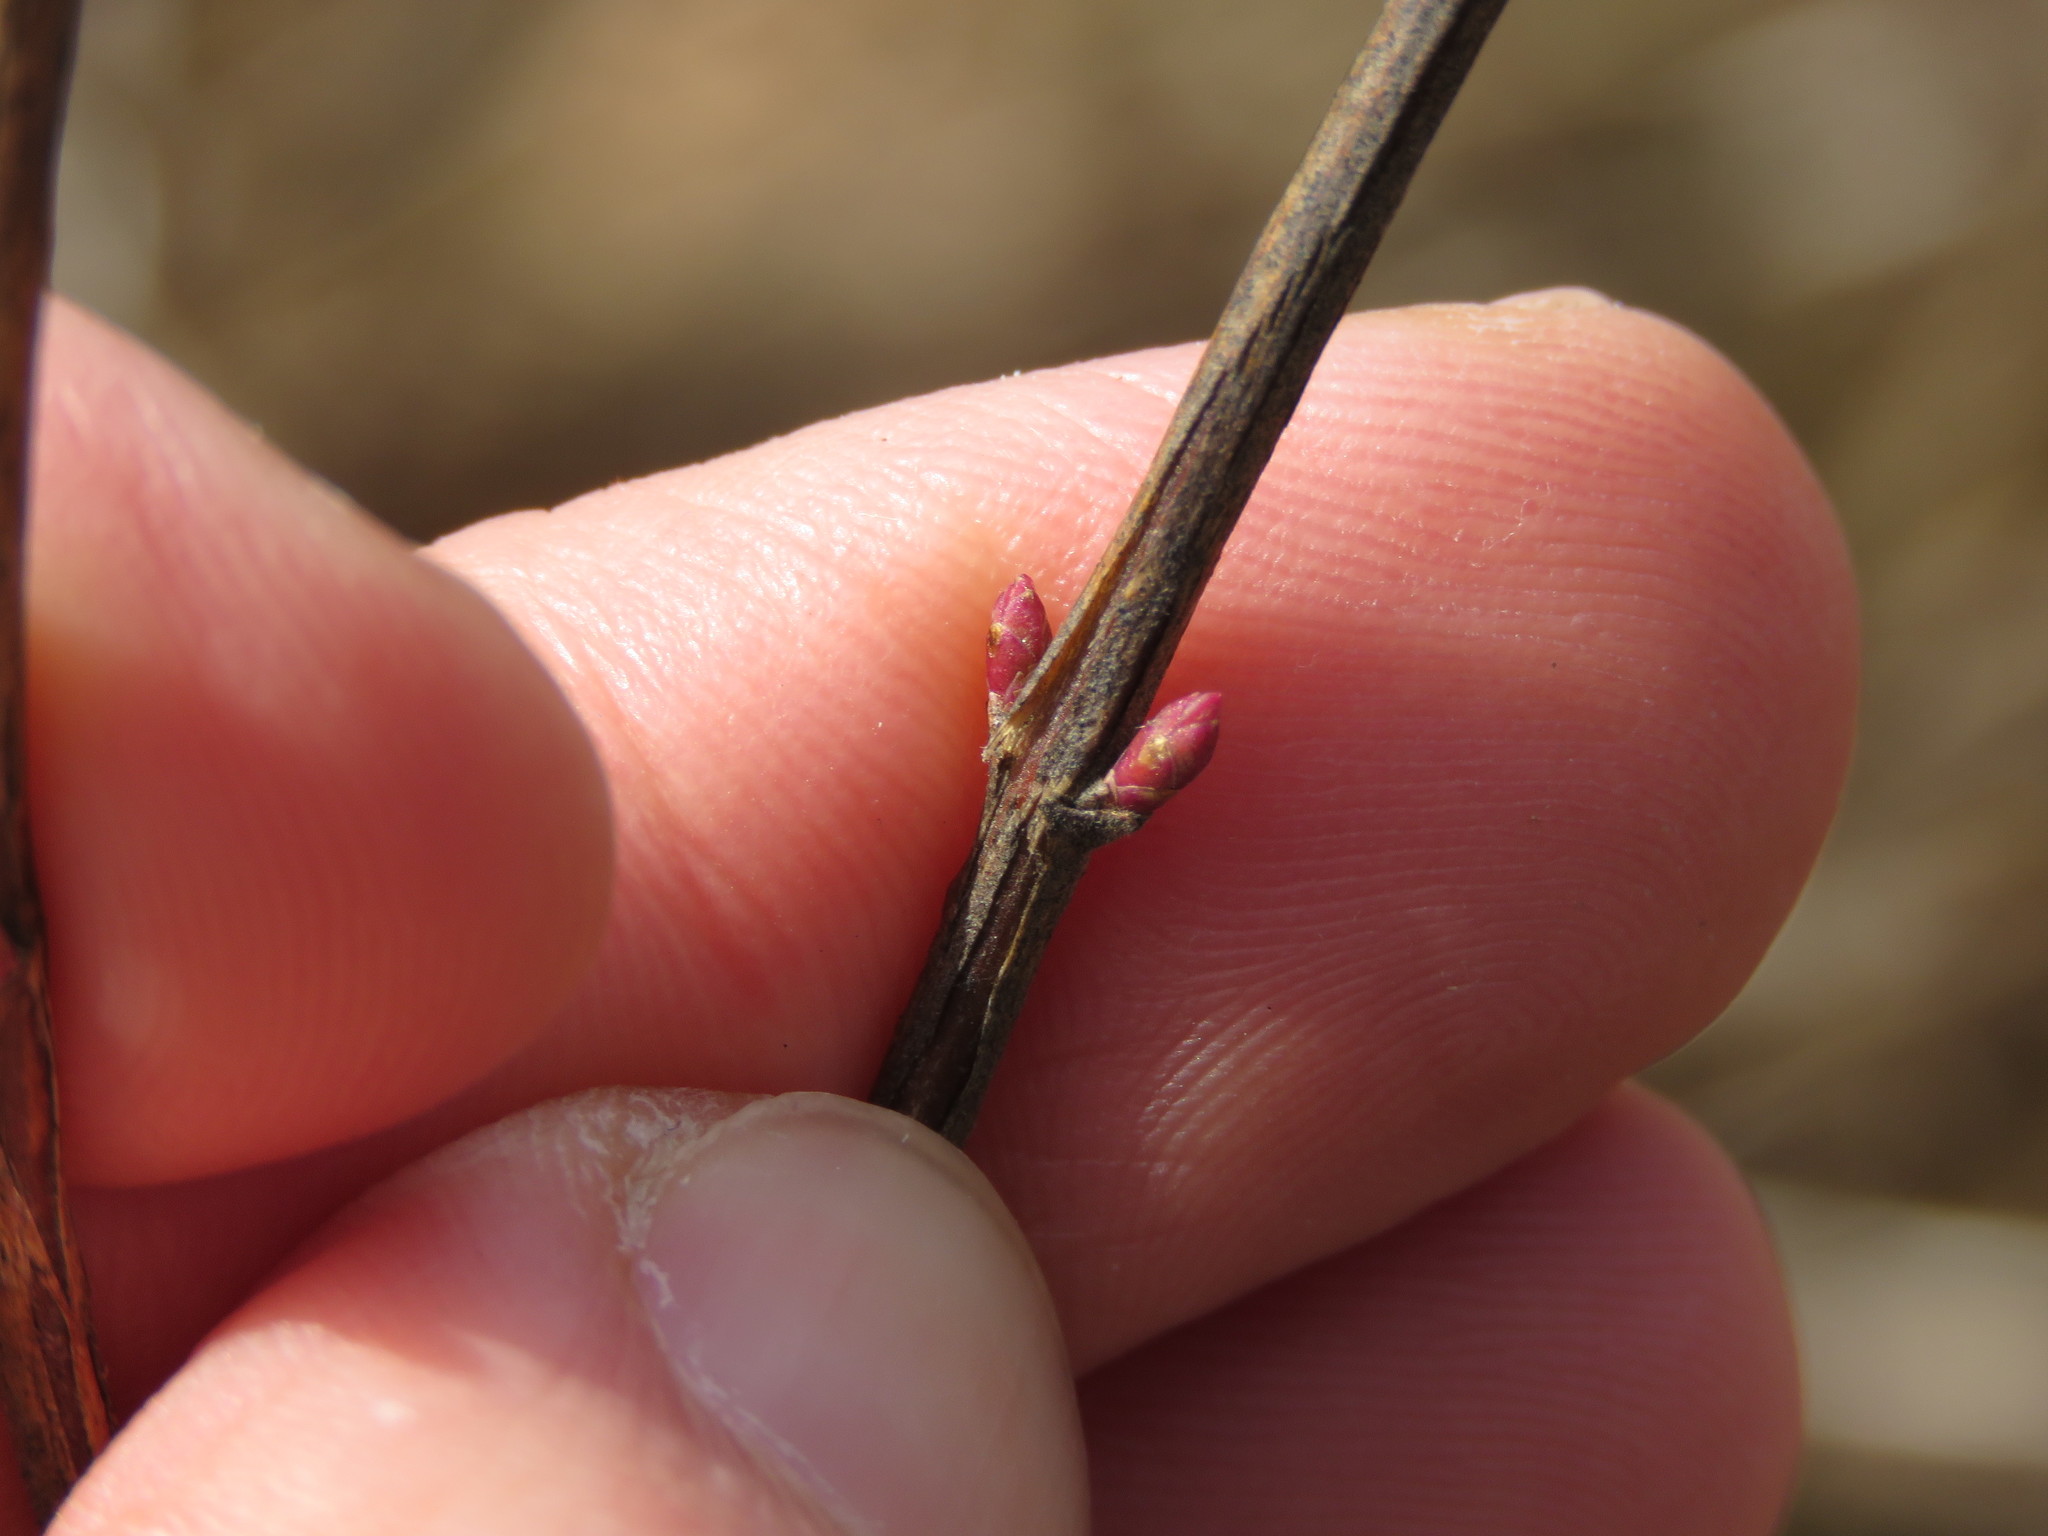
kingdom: Plantae
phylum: Tracheophyta
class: Magnoliopsida
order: Dipsacales
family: Caprifoliaceae
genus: Symphoricarpos
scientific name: Symphoricarpos orbiculatus
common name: Coralberry
